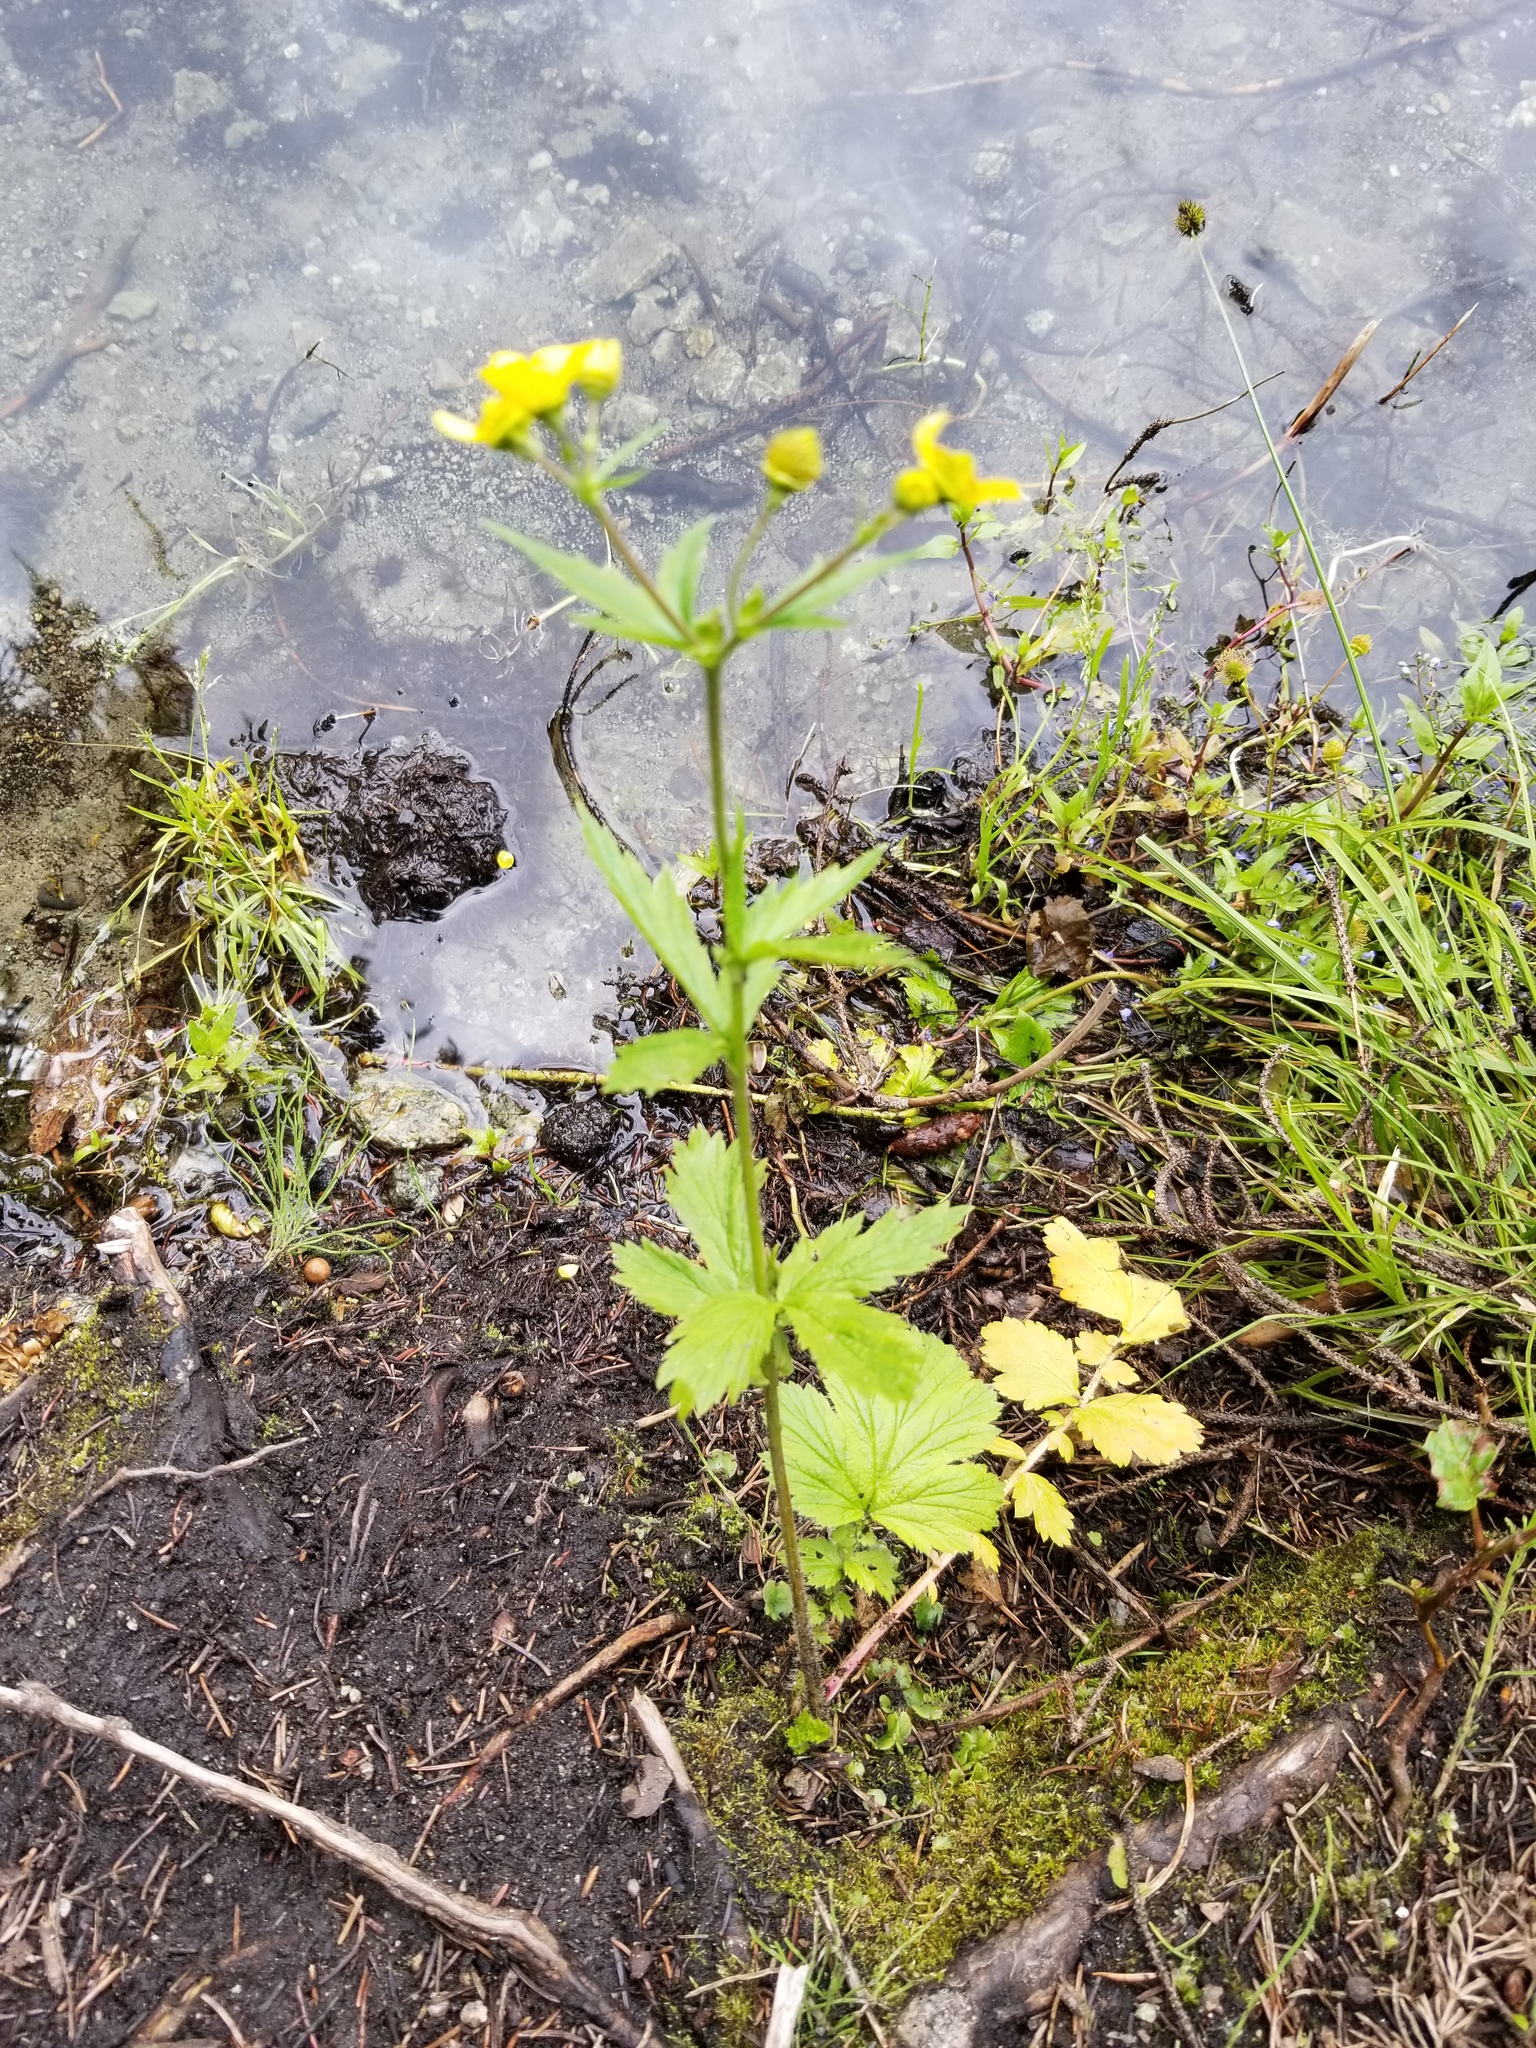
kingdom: Plantae
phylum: Tracheophyta
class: Magnoliopsida
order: Rosales
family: Rosaceae
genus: Geum
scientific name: Geum macrophyllum
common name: Large-leaved avens
